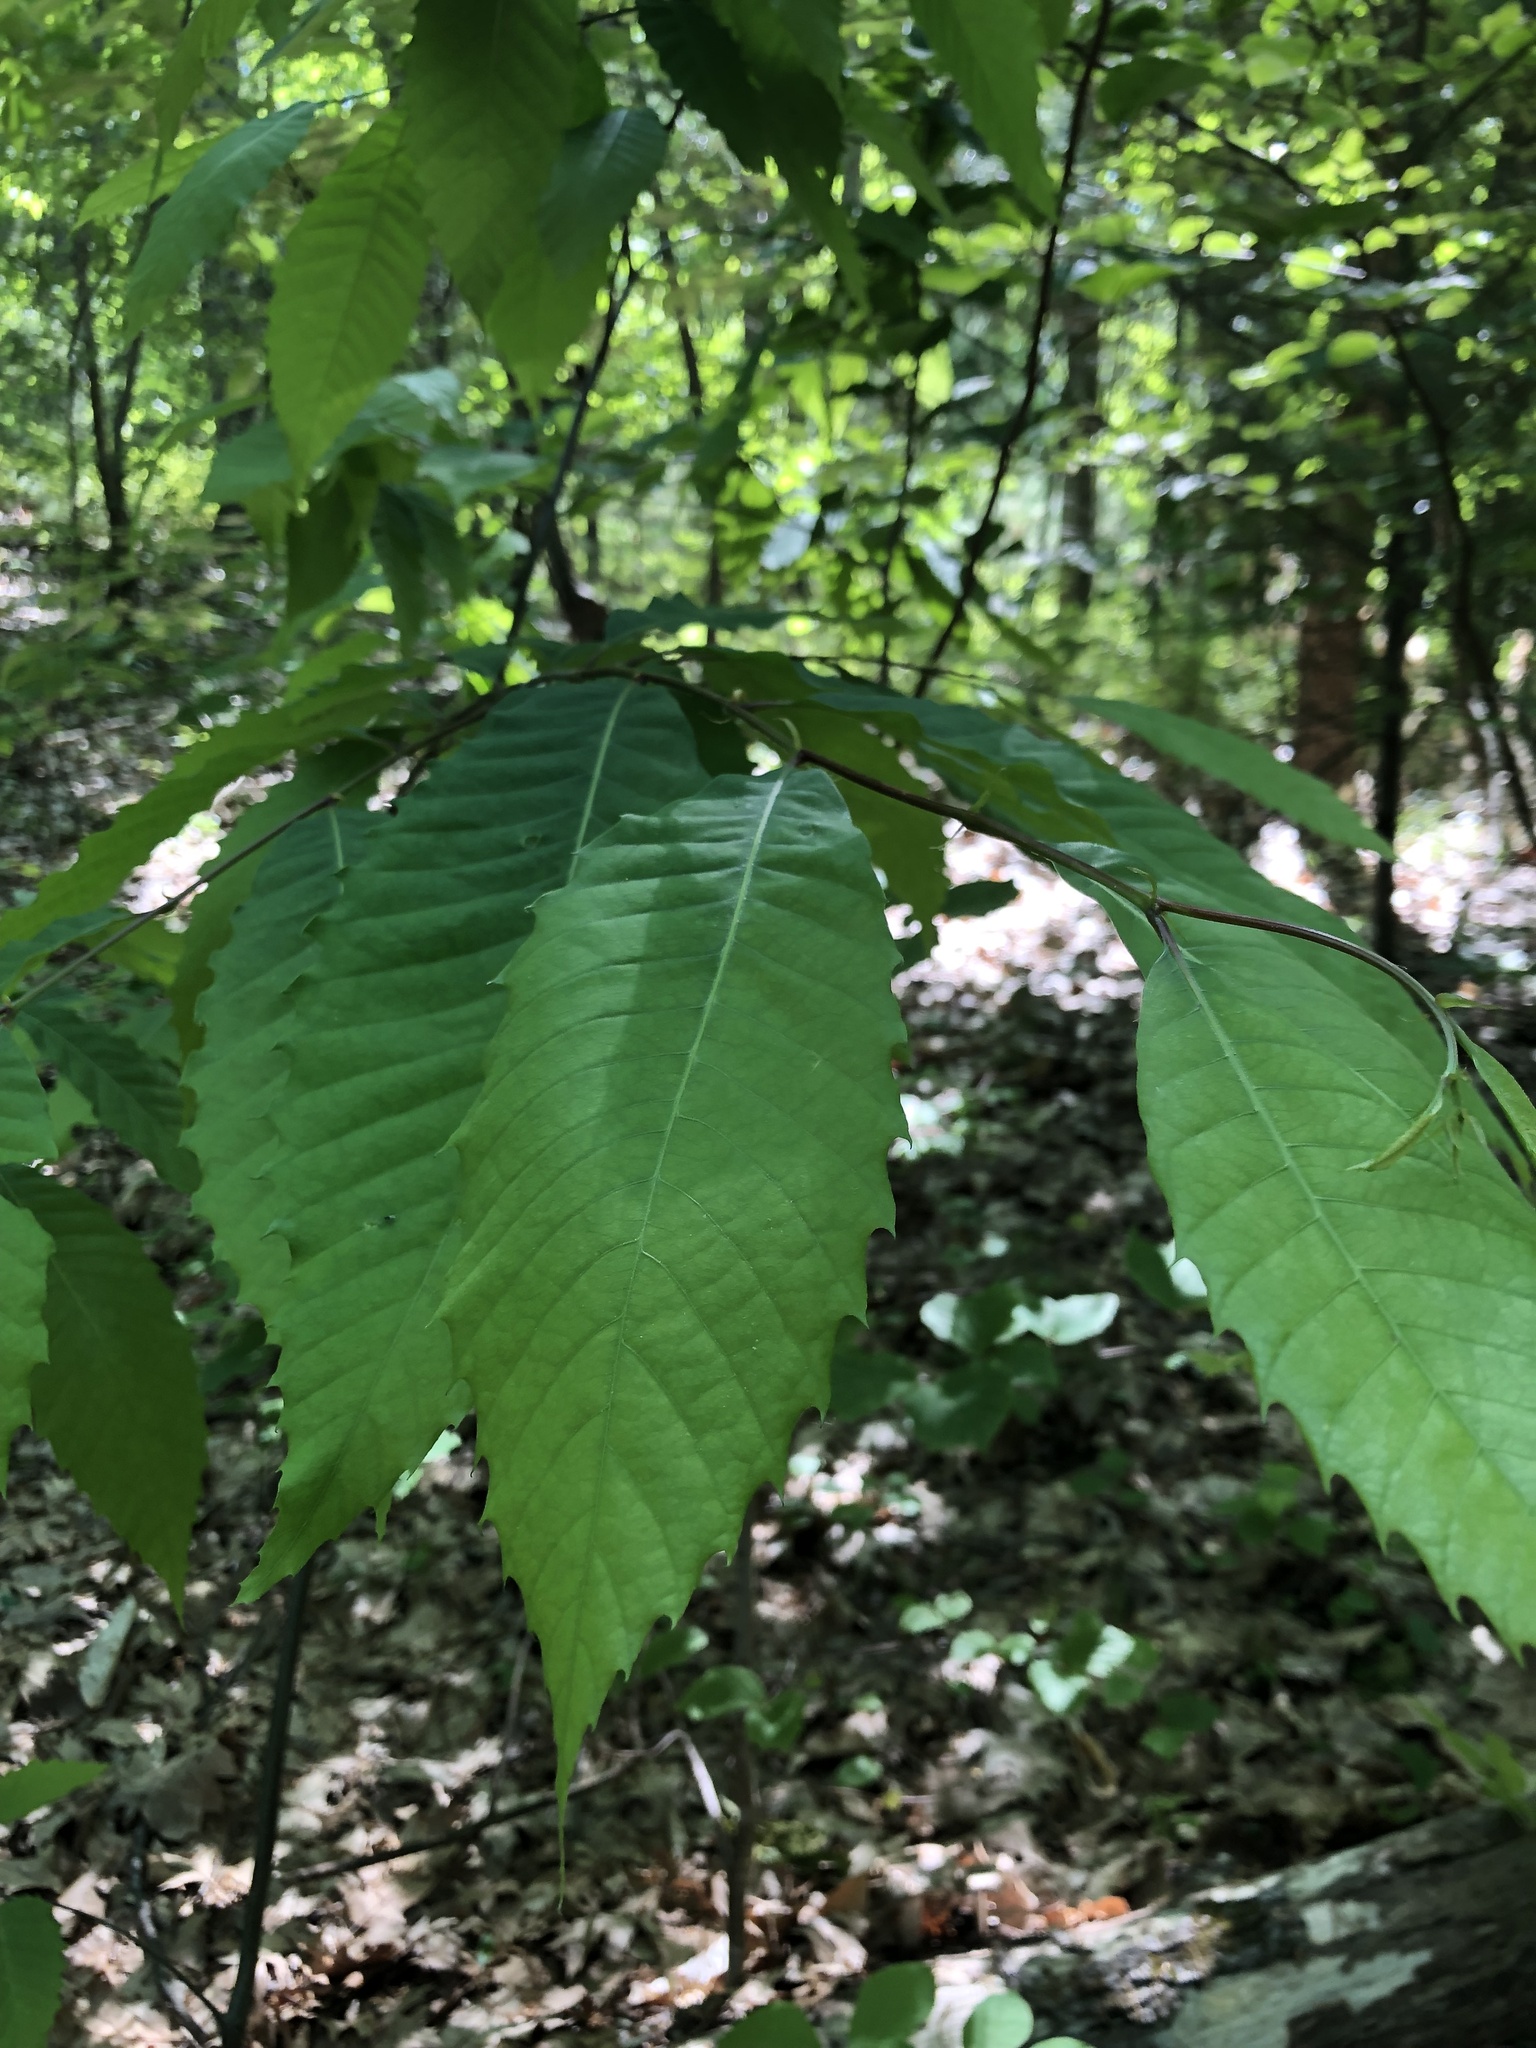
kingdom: Plantae
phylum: Tracheophyta
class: Magnoliopsida
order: Fagales
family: Fagaceae
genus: Castanea
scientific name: Castanea dentata
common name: American chestnut
